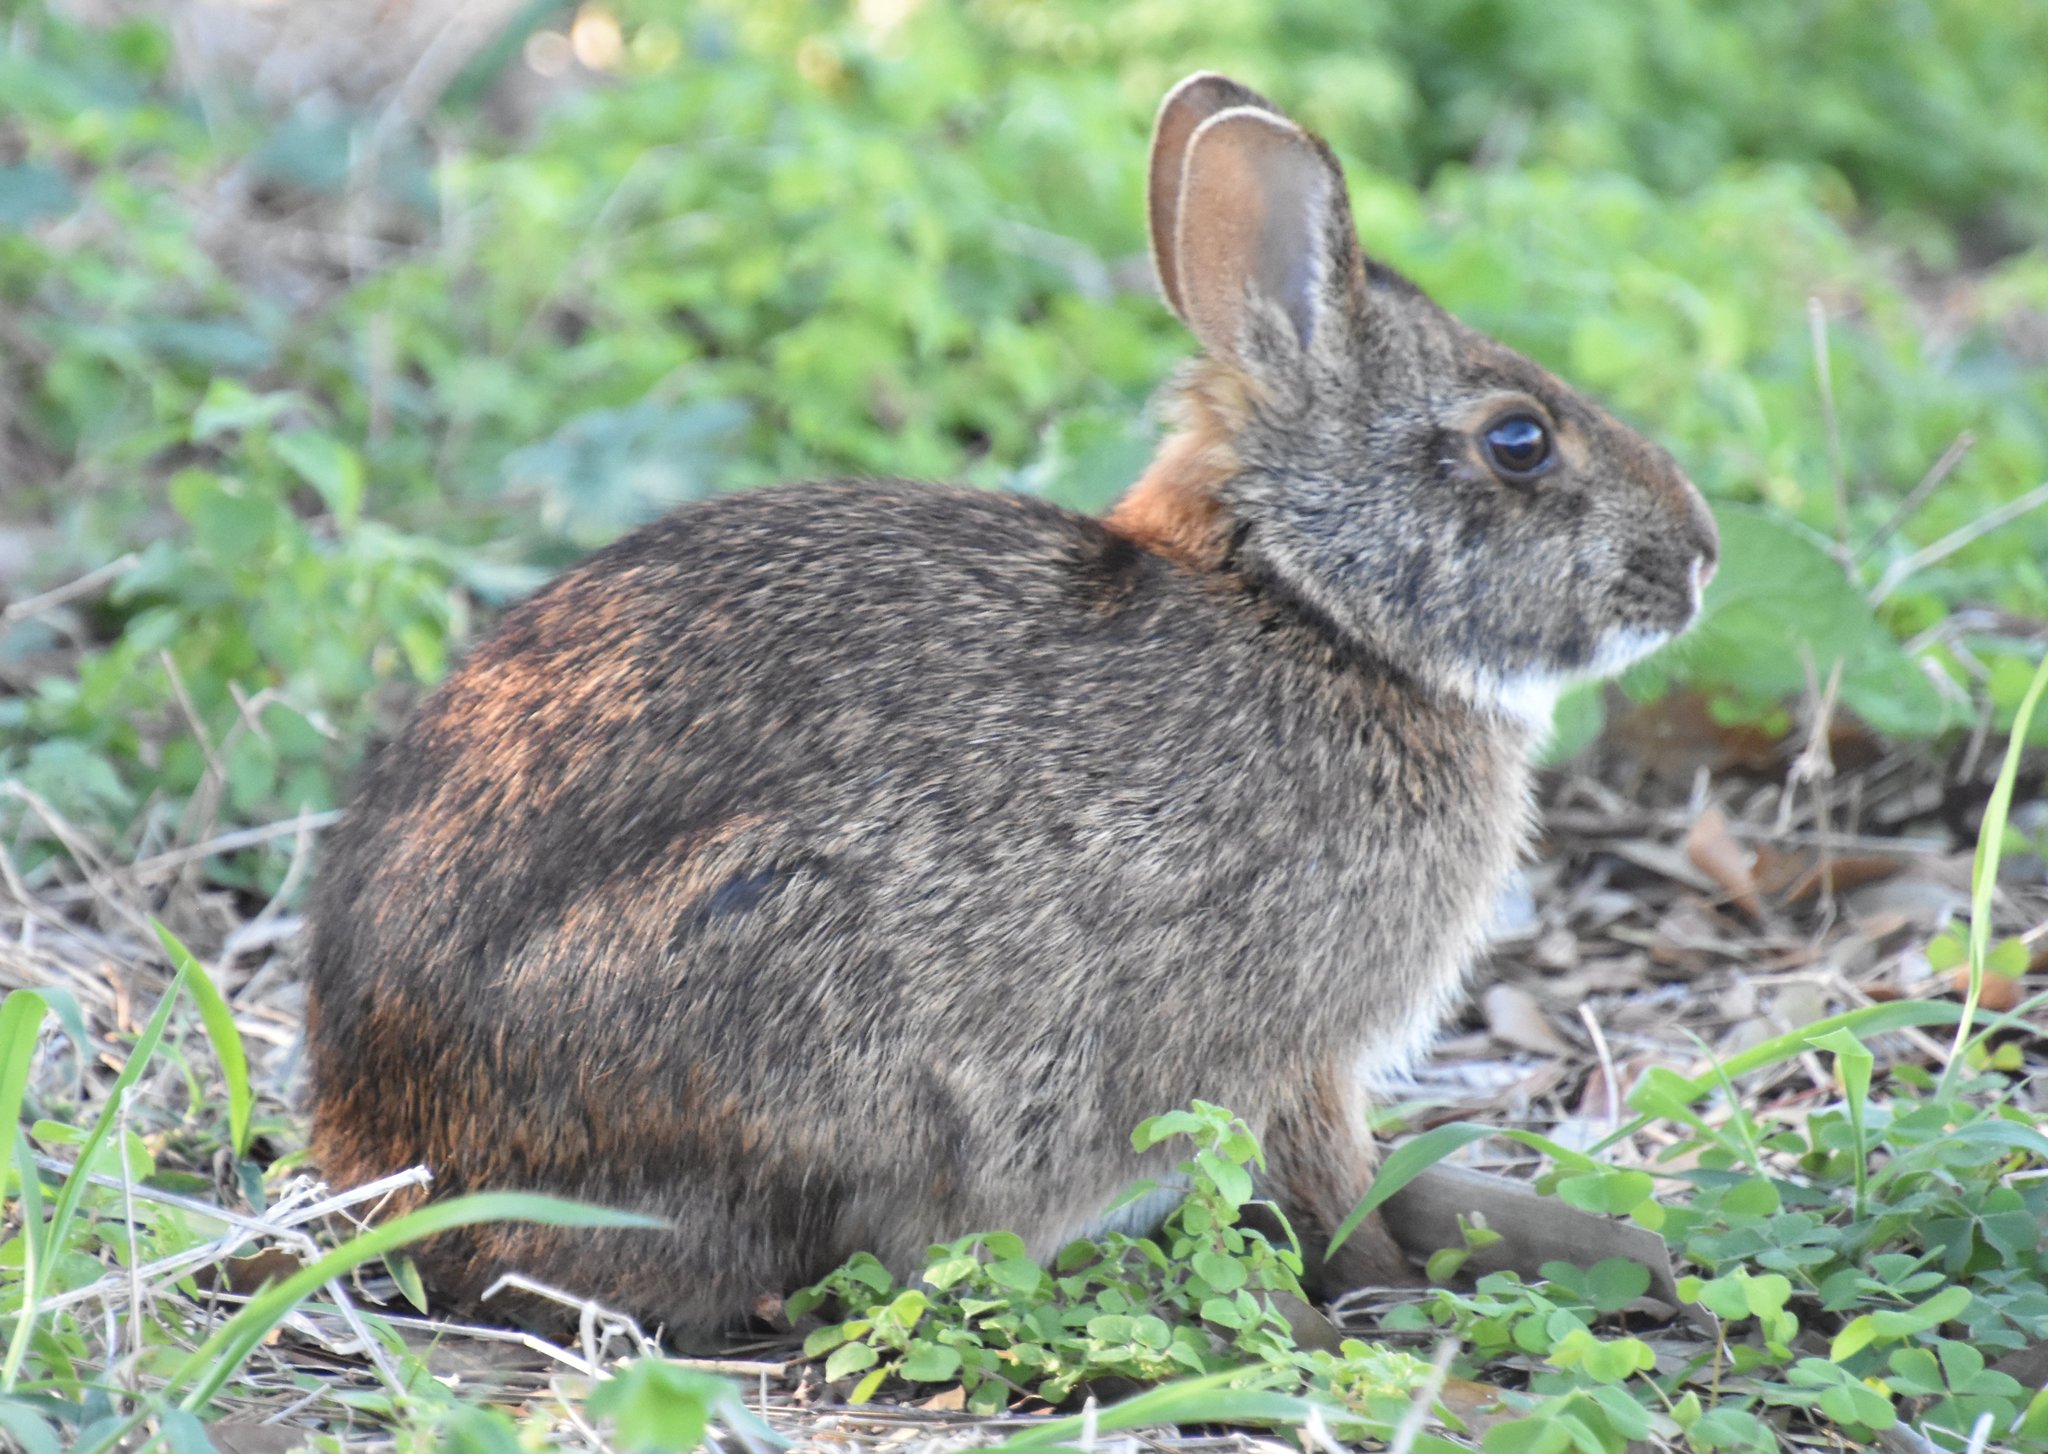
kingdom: Animalia
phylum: Chordata
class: Mammalia
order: Lagomorpha
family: Leporidae
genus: Sylvilagus
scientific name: Sylvilagus palustris
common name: Marsh rabbit
